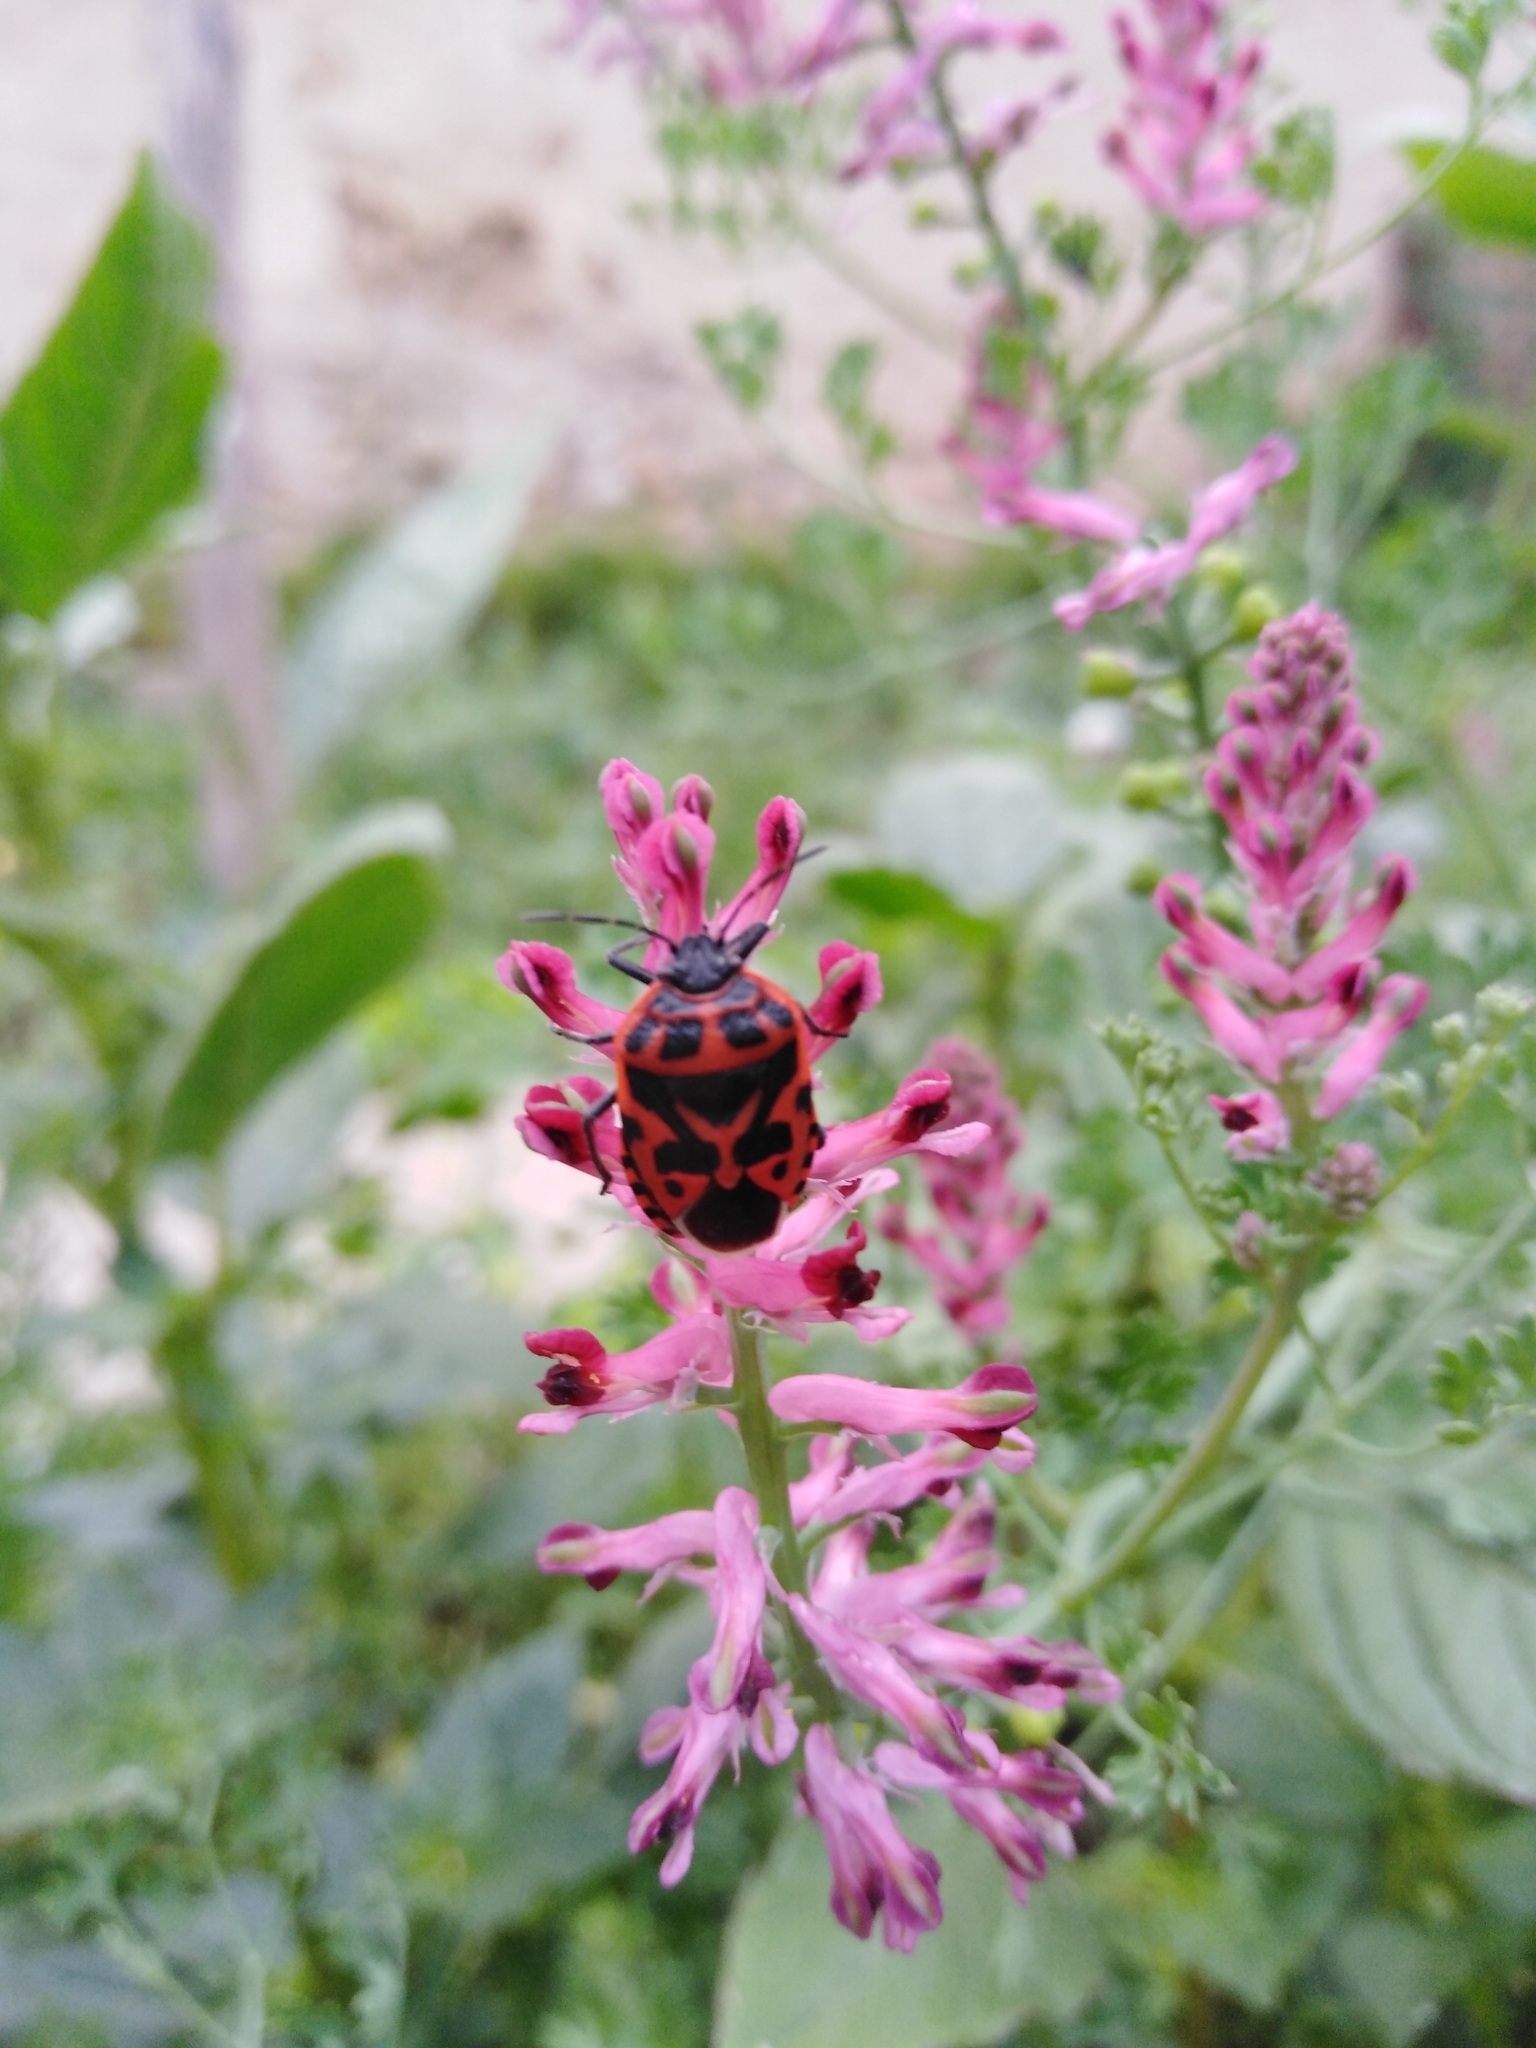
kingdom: Animalia
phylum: Arthropoda
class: Insecta
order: Hemiptera
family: Pentatomidae
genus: Eurydema
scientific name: Eurydema ventralis
